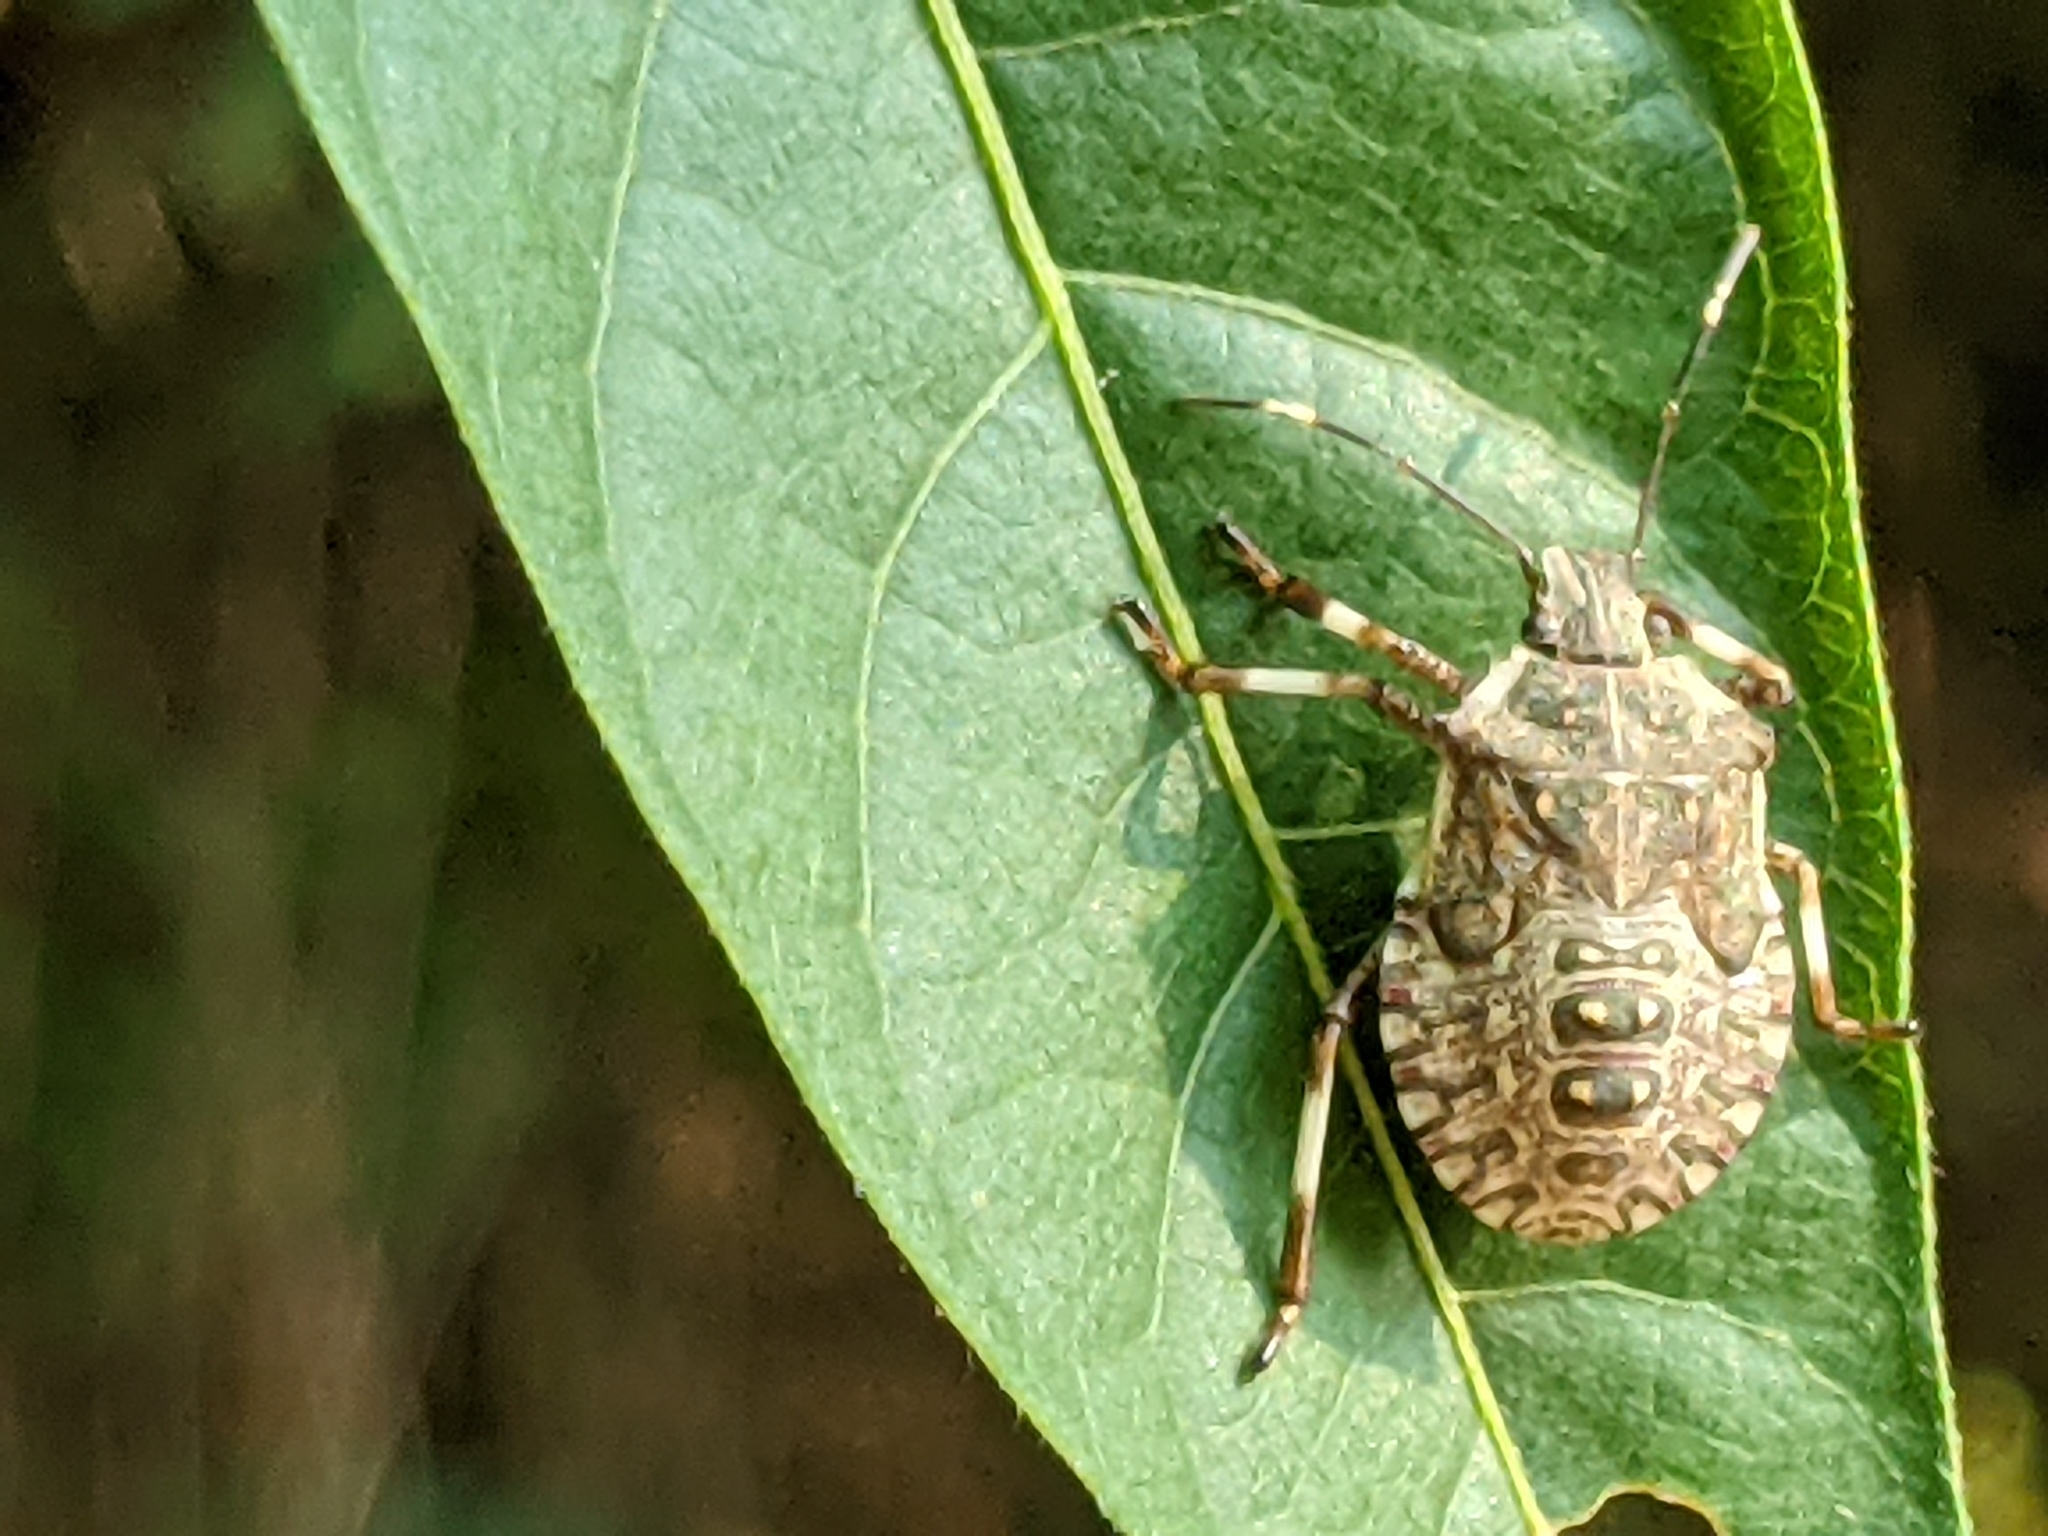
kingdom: Animalia
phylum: Arthropoda
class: Insecta
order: Hemiptera
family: Pentatomidae
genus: Halyomorpha
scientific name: Halyomorpha halys
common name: Brown marmorated stink bug
